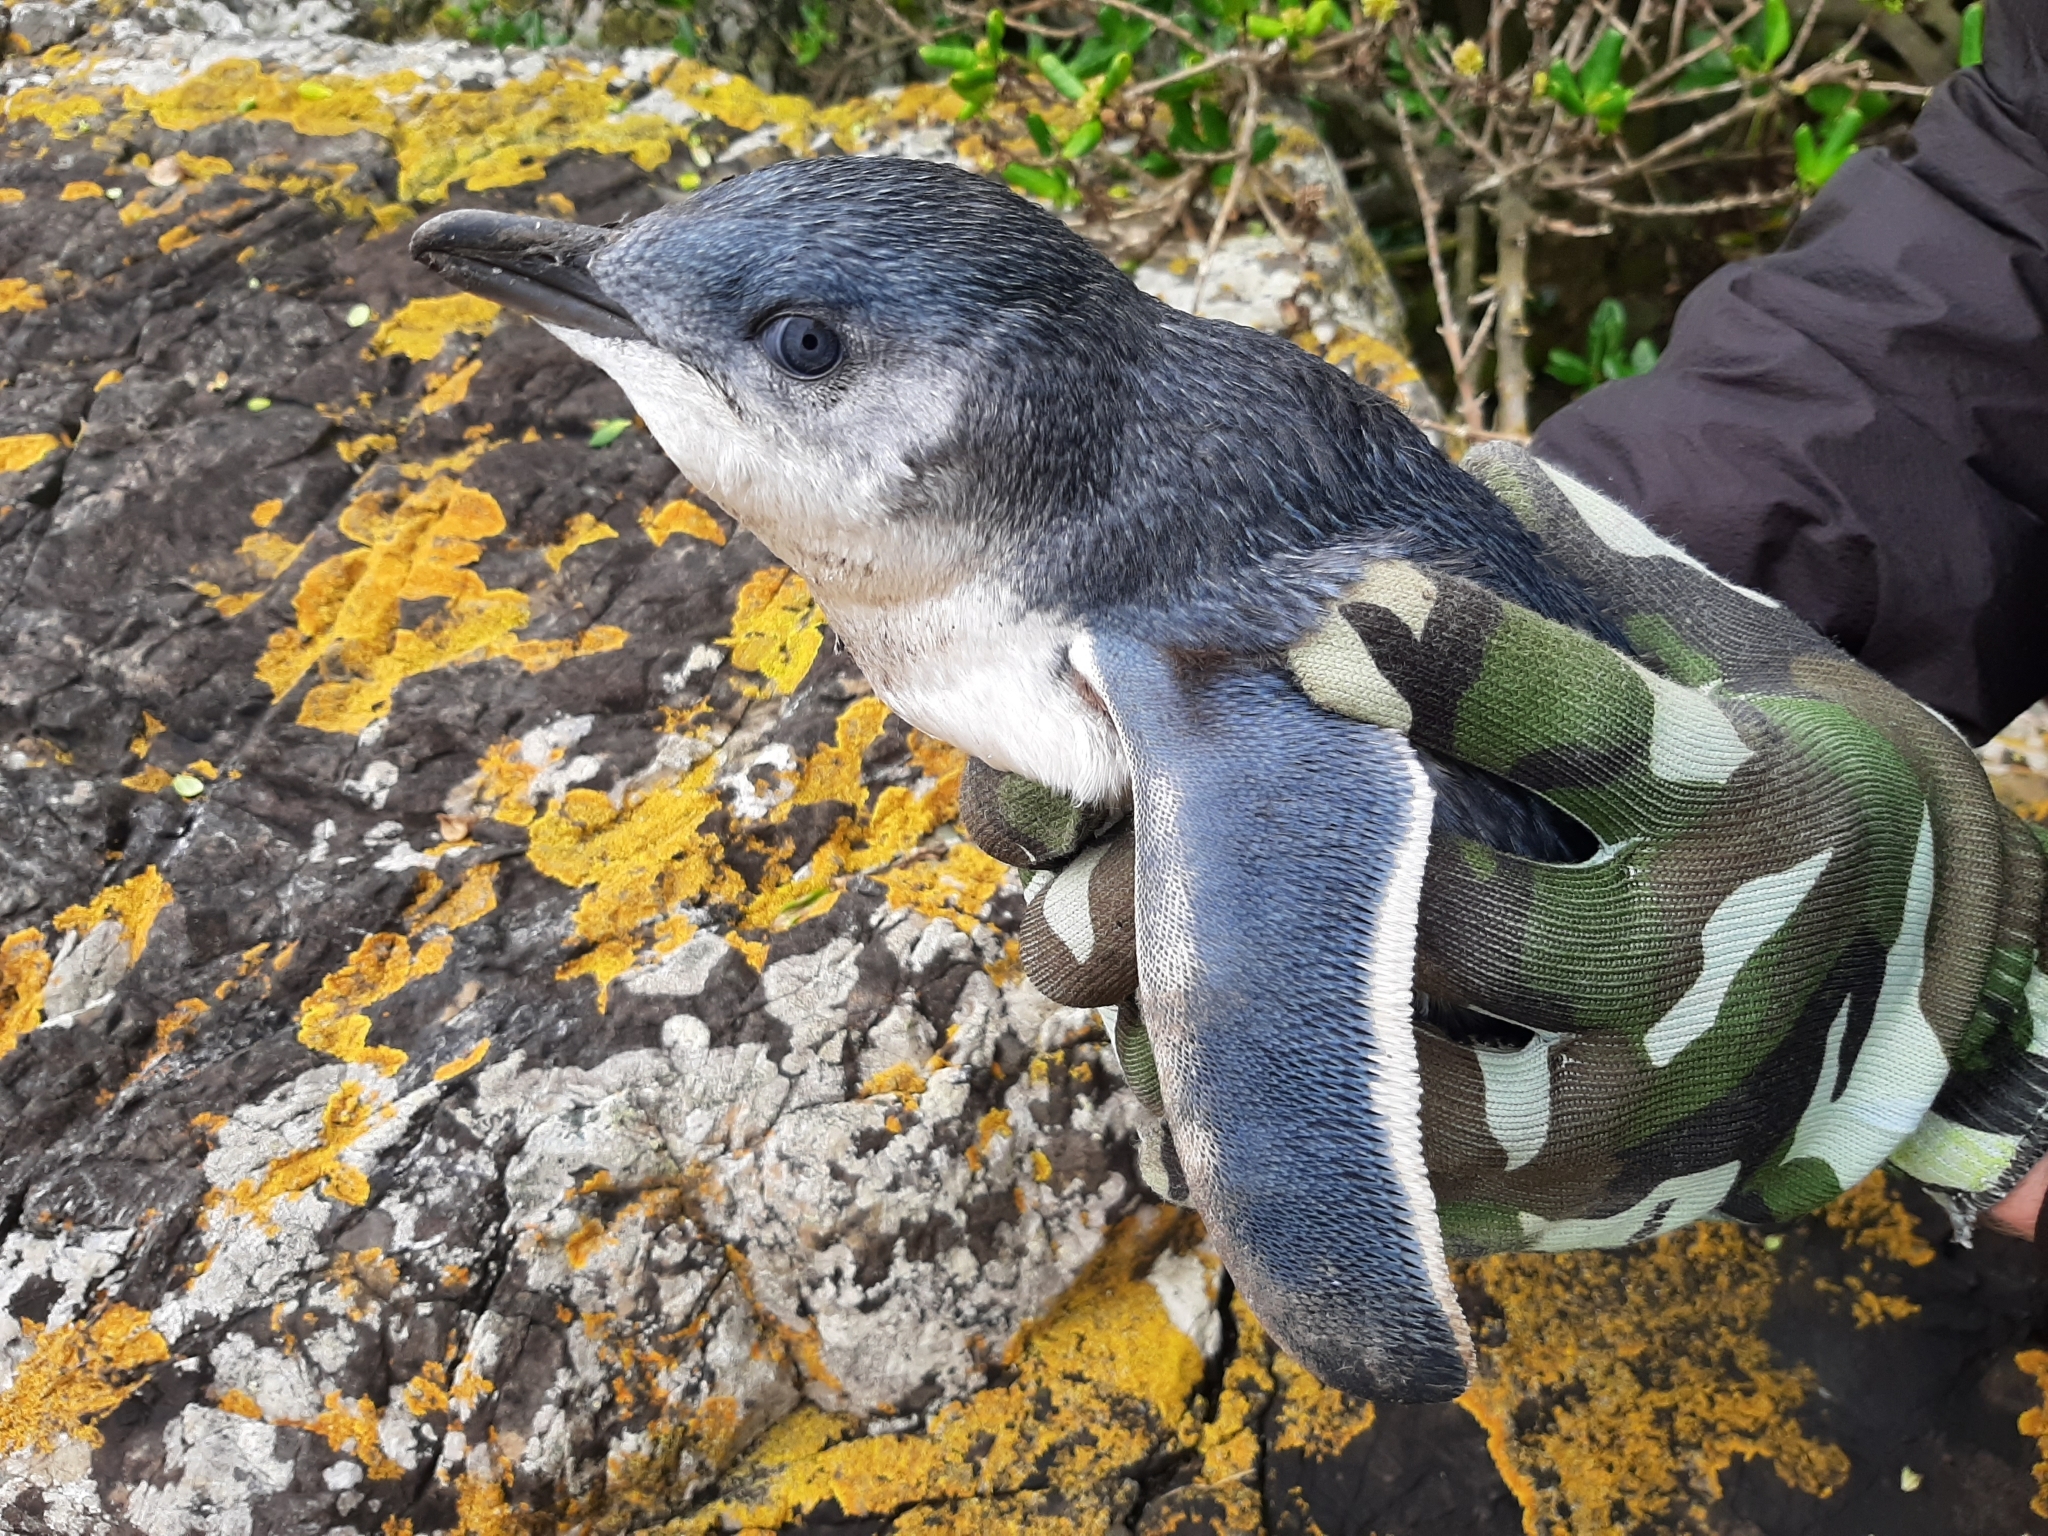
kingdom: Animalia
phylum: Chordata
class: Aves
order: Sphenisciformes
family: Spheniscidae
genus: Eudyptula
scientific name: Eudyptula minor
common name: Little penguin
